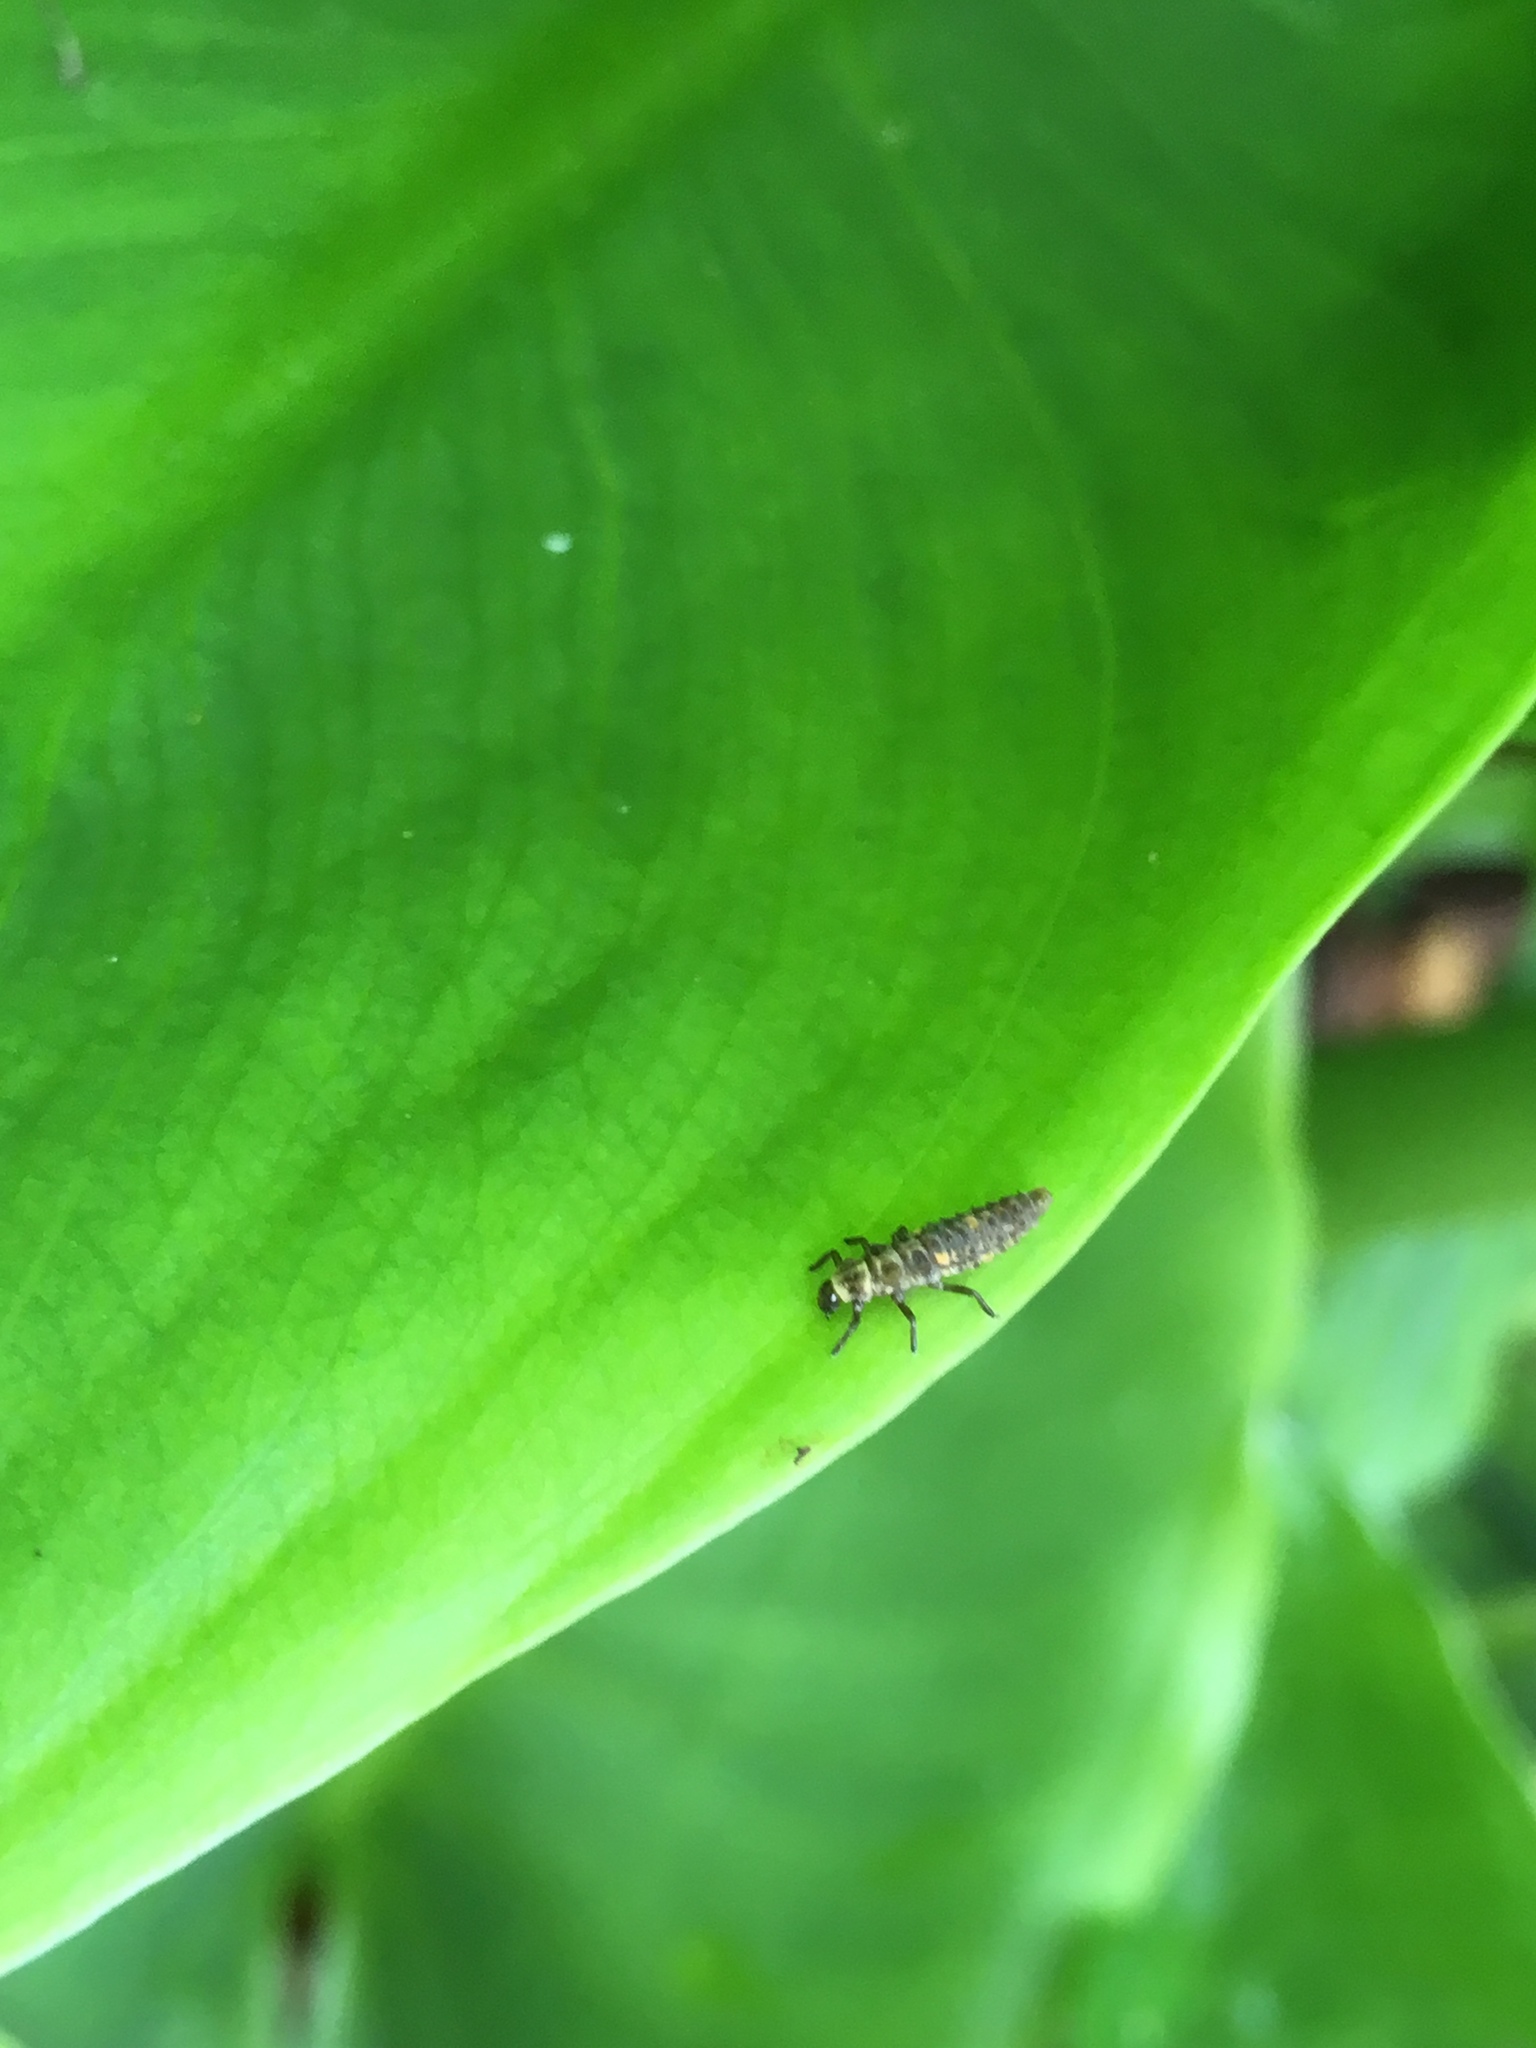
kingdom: Animalia
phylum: Arthropoda
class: Insecta
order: Coleoptera
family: Coccinellidae
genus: Adalia
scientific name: Adalia bipunctata
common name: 2-spot ladybird
